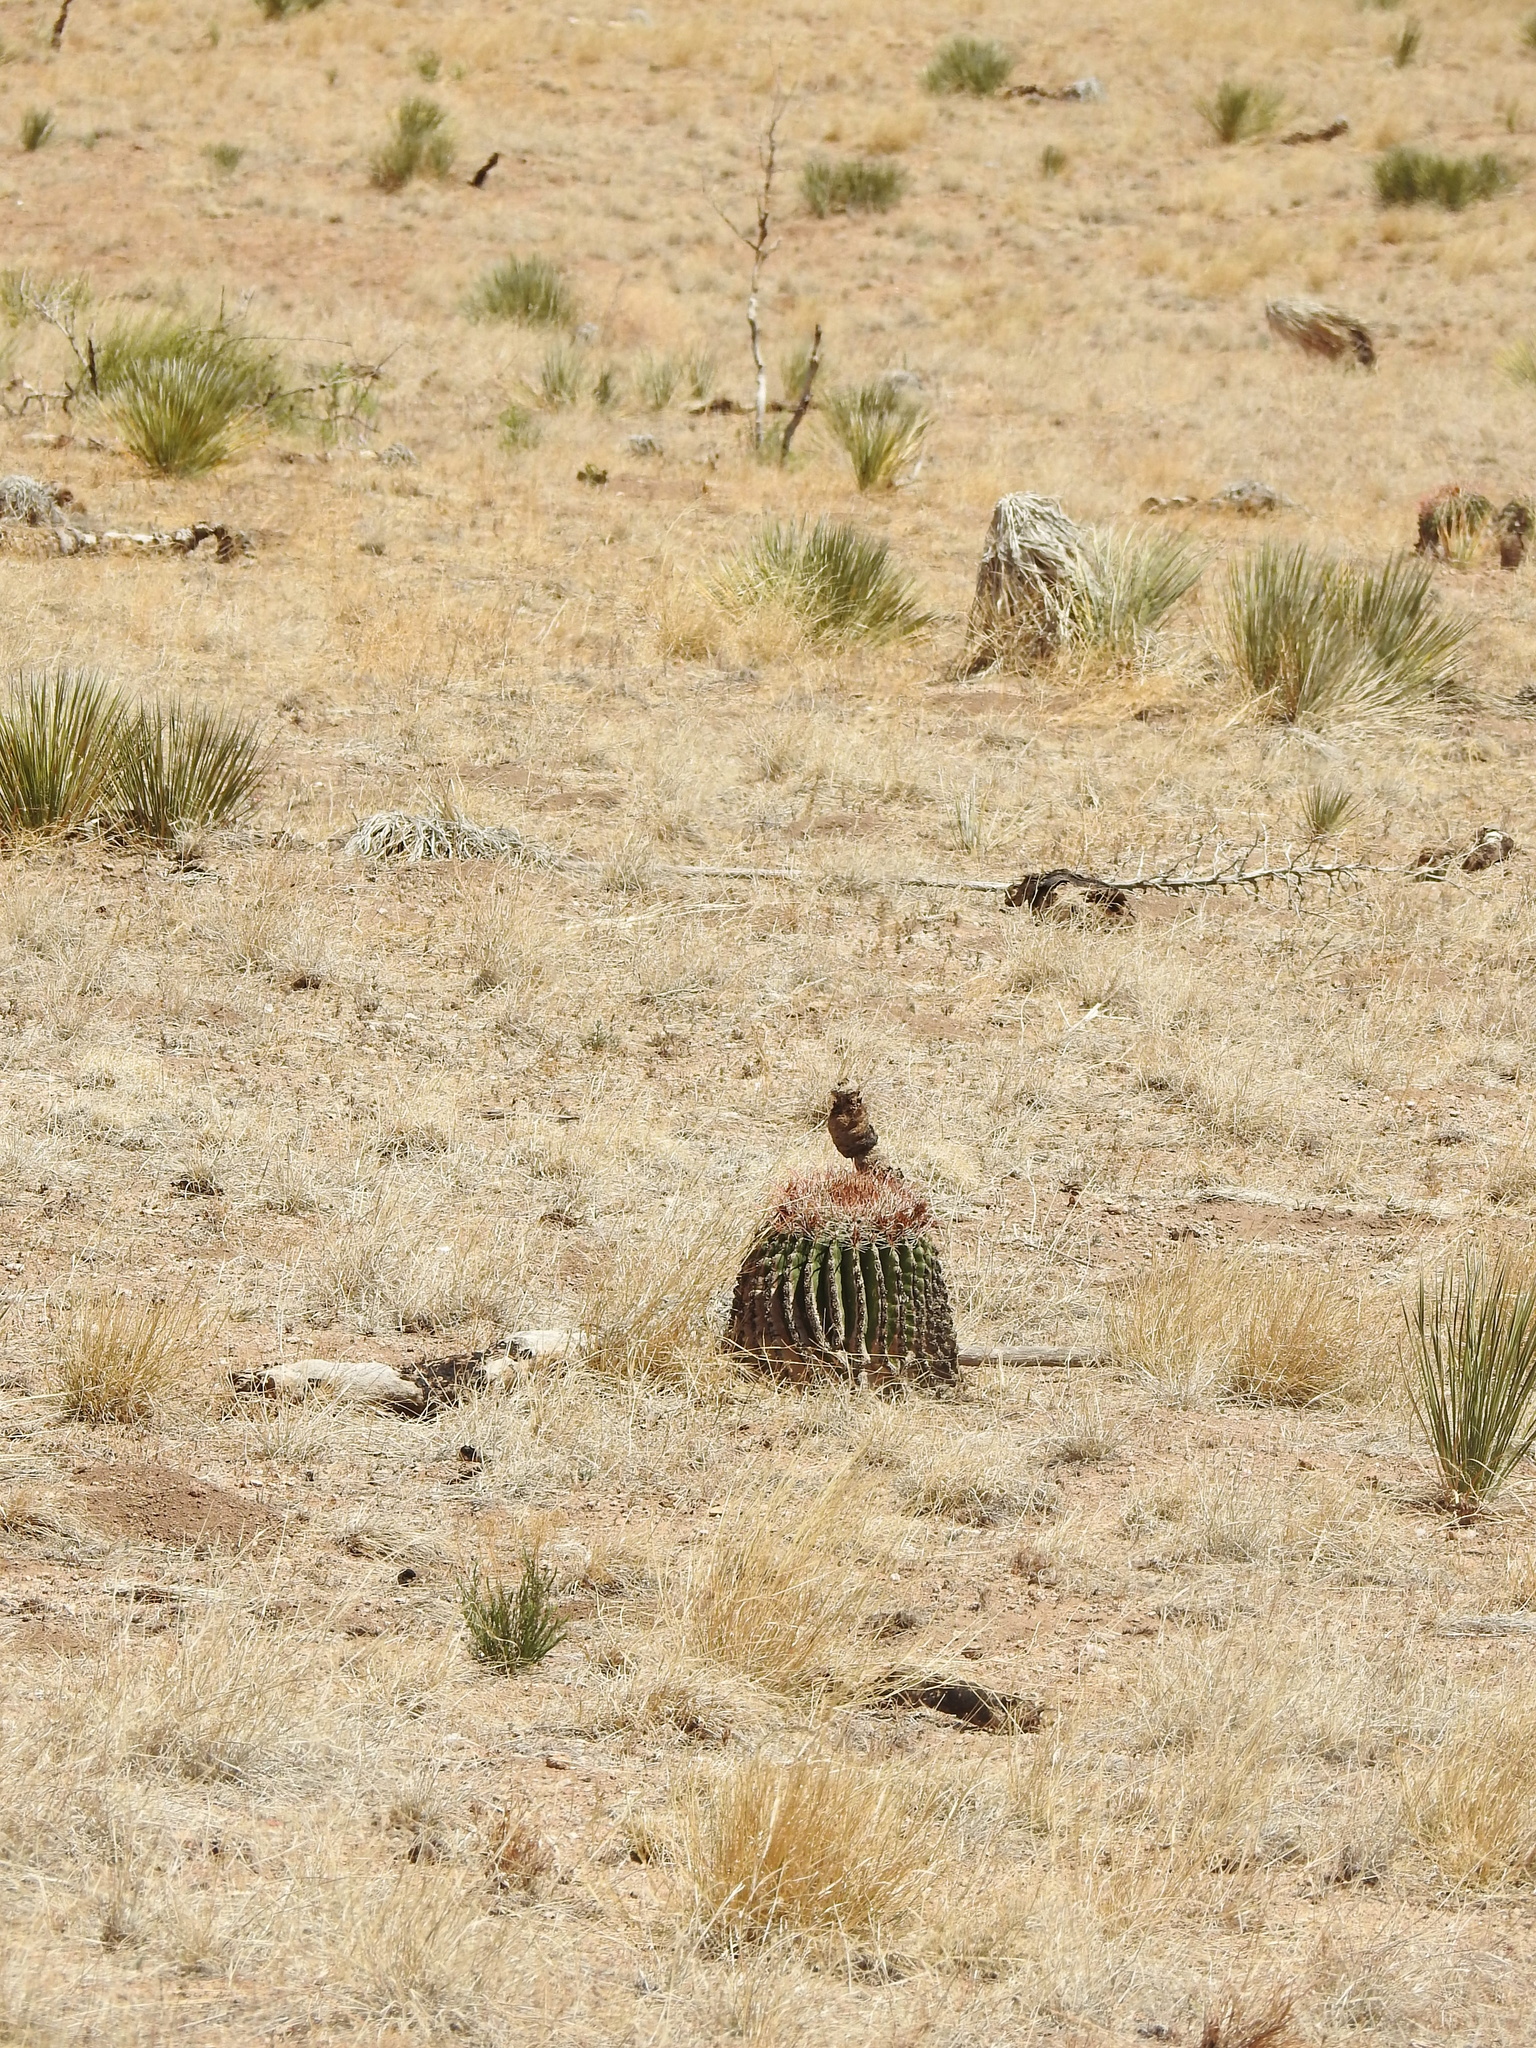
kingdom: Plantae
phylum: Tracheophyta
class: Magnoliopsida
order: Caryophyllales
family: Cactaceae
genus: Ferocactus
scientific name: Ferocactus wislizeni
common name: Candy barrel cactus
